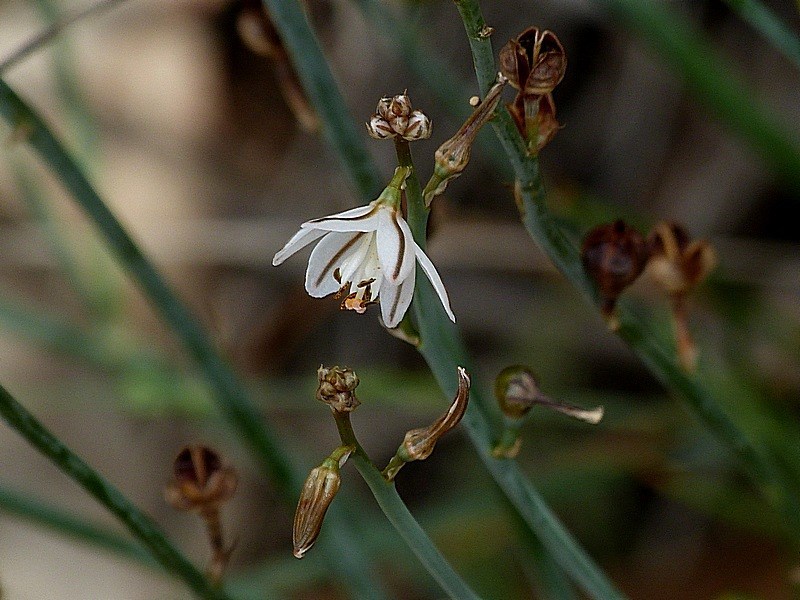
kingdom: Plantae
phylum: Tracheophyta
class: Liliopsida
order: Asparagales
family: Asphodelaceae
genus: Asphodelus
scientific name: Asphodelus fistulosus
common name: Onionweed
